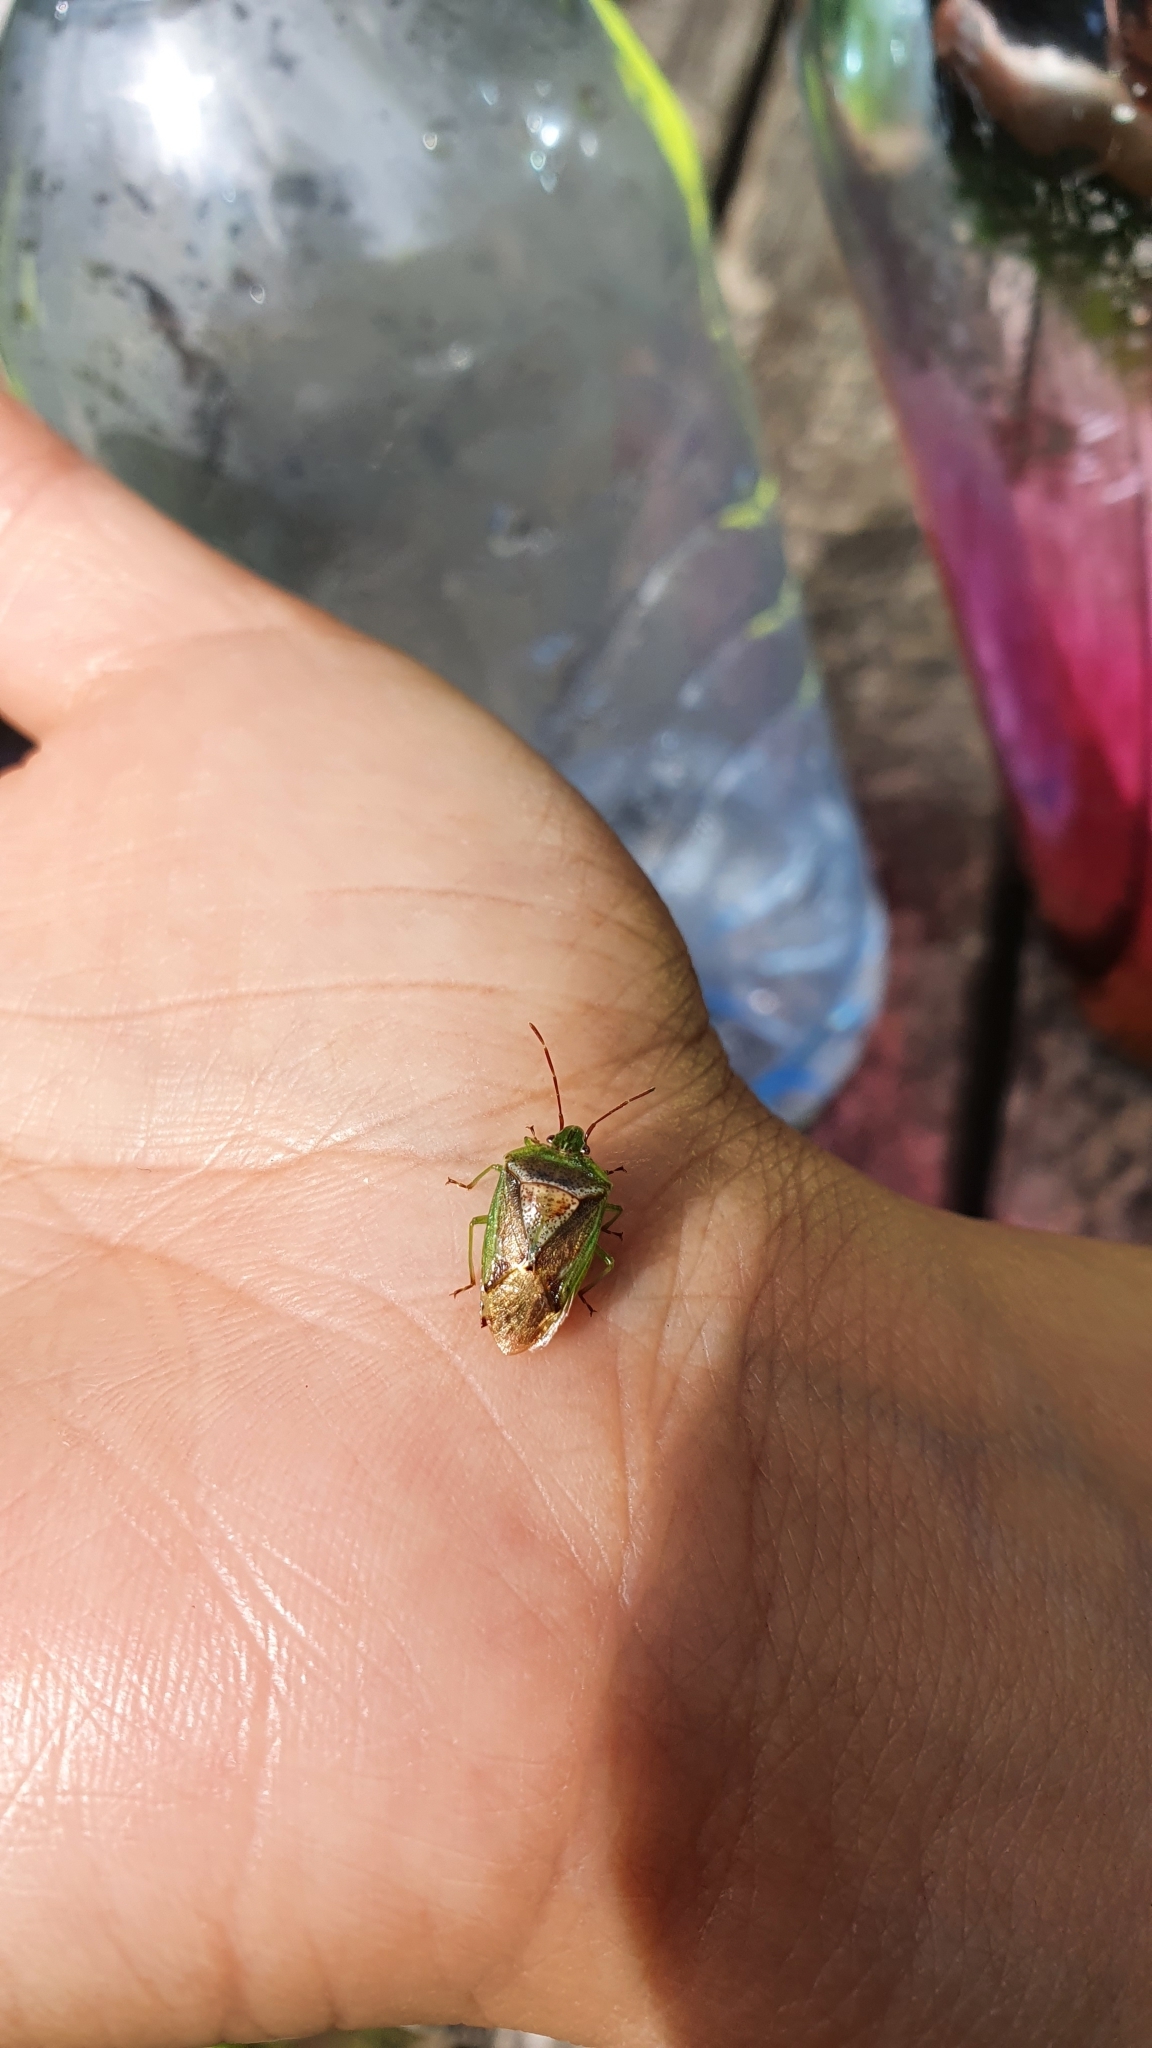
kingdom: Animalia
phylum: Arthropoda
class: Insecta
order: Hemiptera
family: Acanthosomatidae
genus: Oncacontias
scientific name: Oncacontias vittatus
